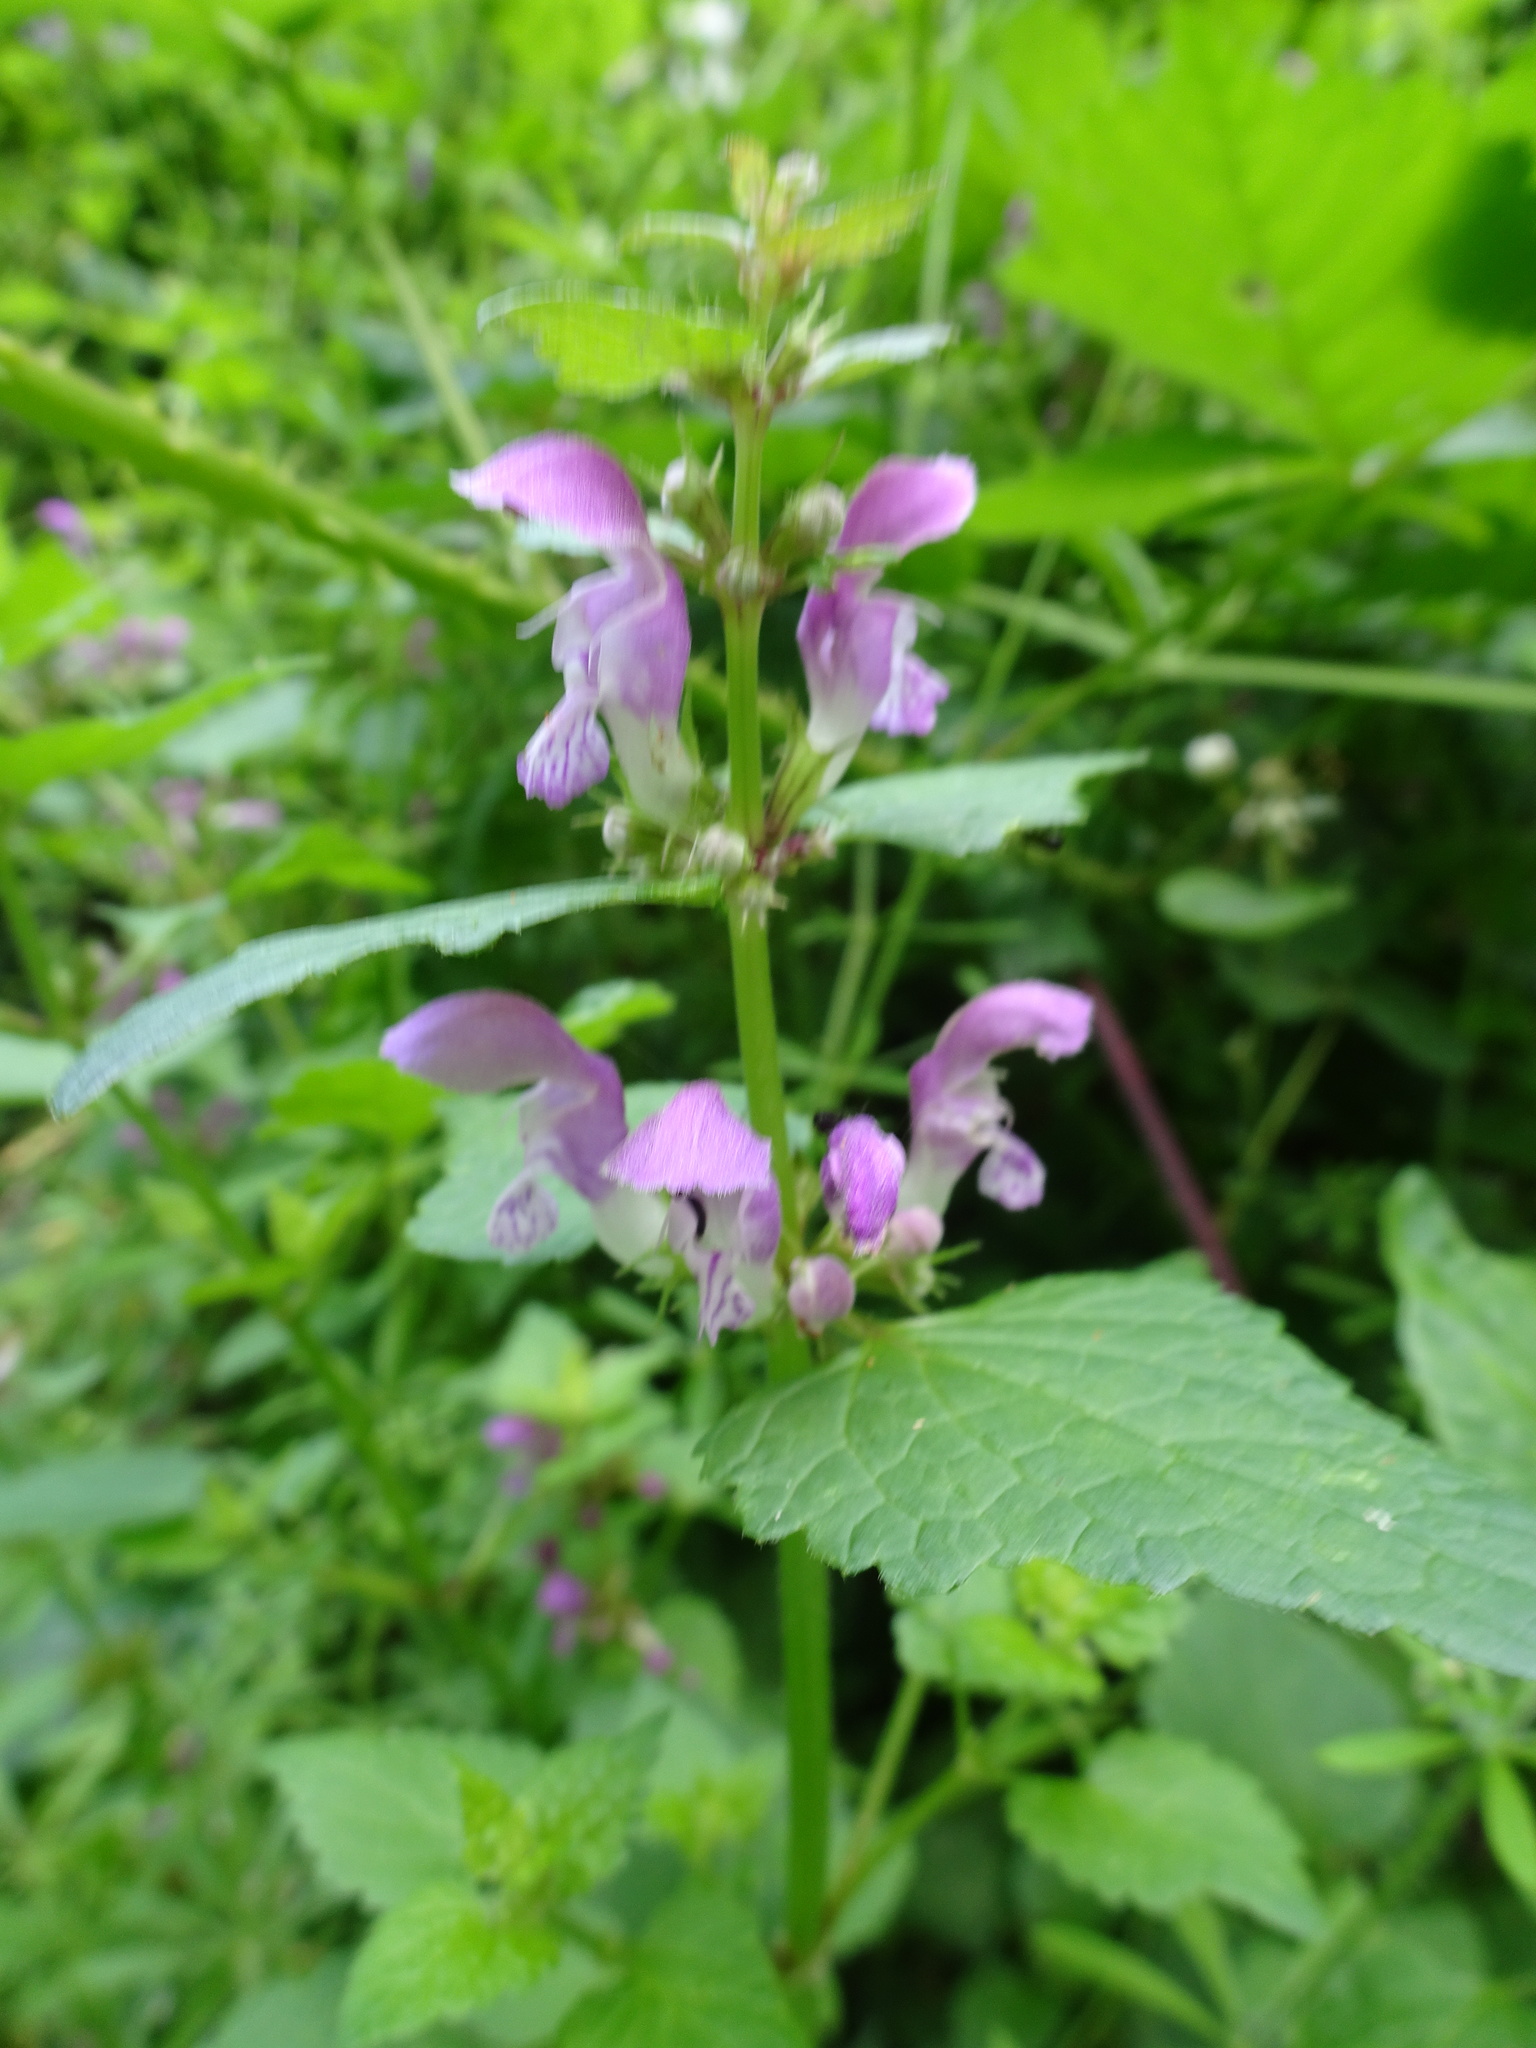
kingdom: Plantae
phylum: Tracheophyta
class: Magnoliopsida
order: Lamiales
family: Lamiaceae
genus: Lamium
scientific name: Lamium maculatum
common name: Spotted dead-nettle
